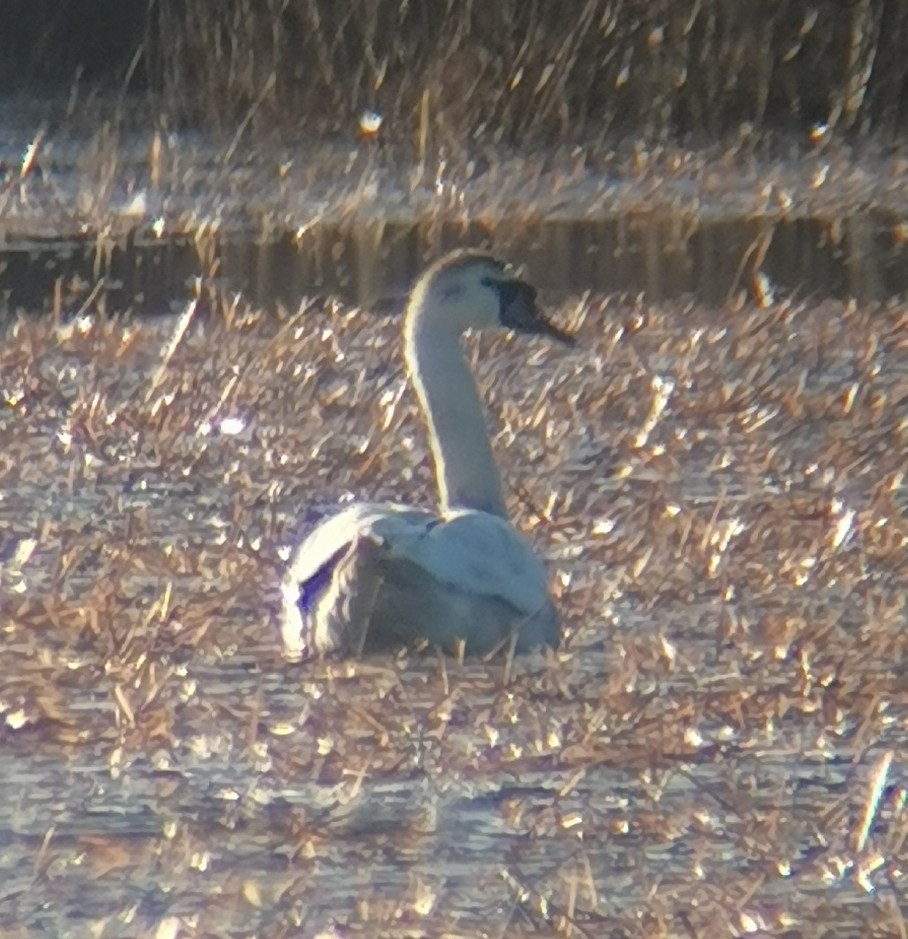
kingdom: Animalia
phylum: Chordata
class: Aves
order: Anseriformes
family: Anatidae
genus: Cygnus
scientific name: Cygnus olor
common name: Mute swan
